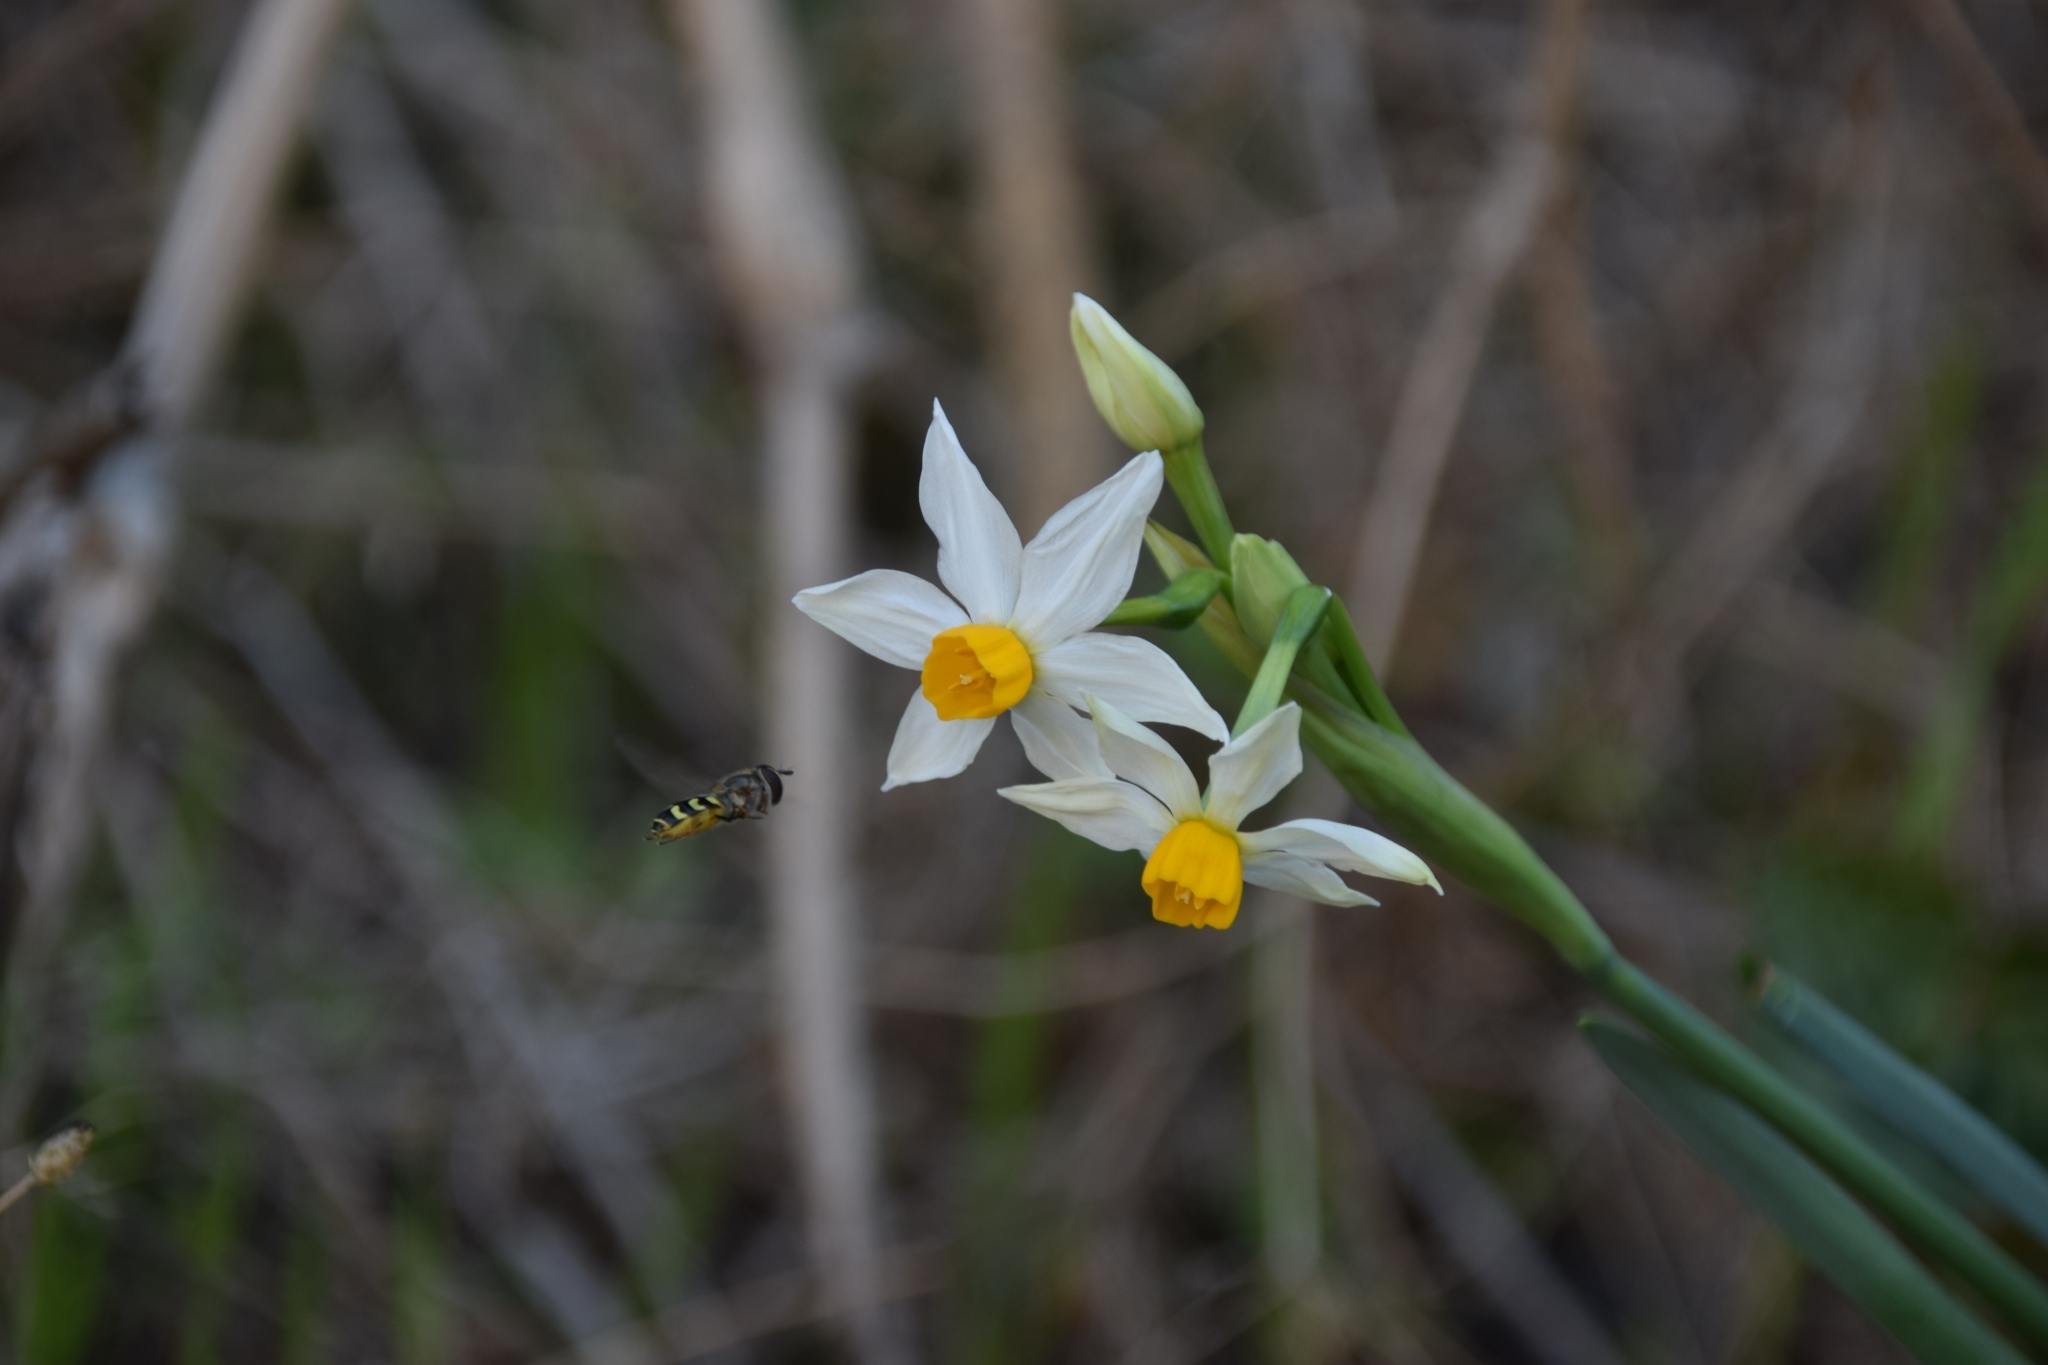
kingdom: Plantae
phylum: Tracheophyta
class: Liliopsida
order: Asparagales
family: Amaryllidaceae
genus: Narcissus
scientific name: Narcissus tazetta
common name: Bunch-flowered daffodil
